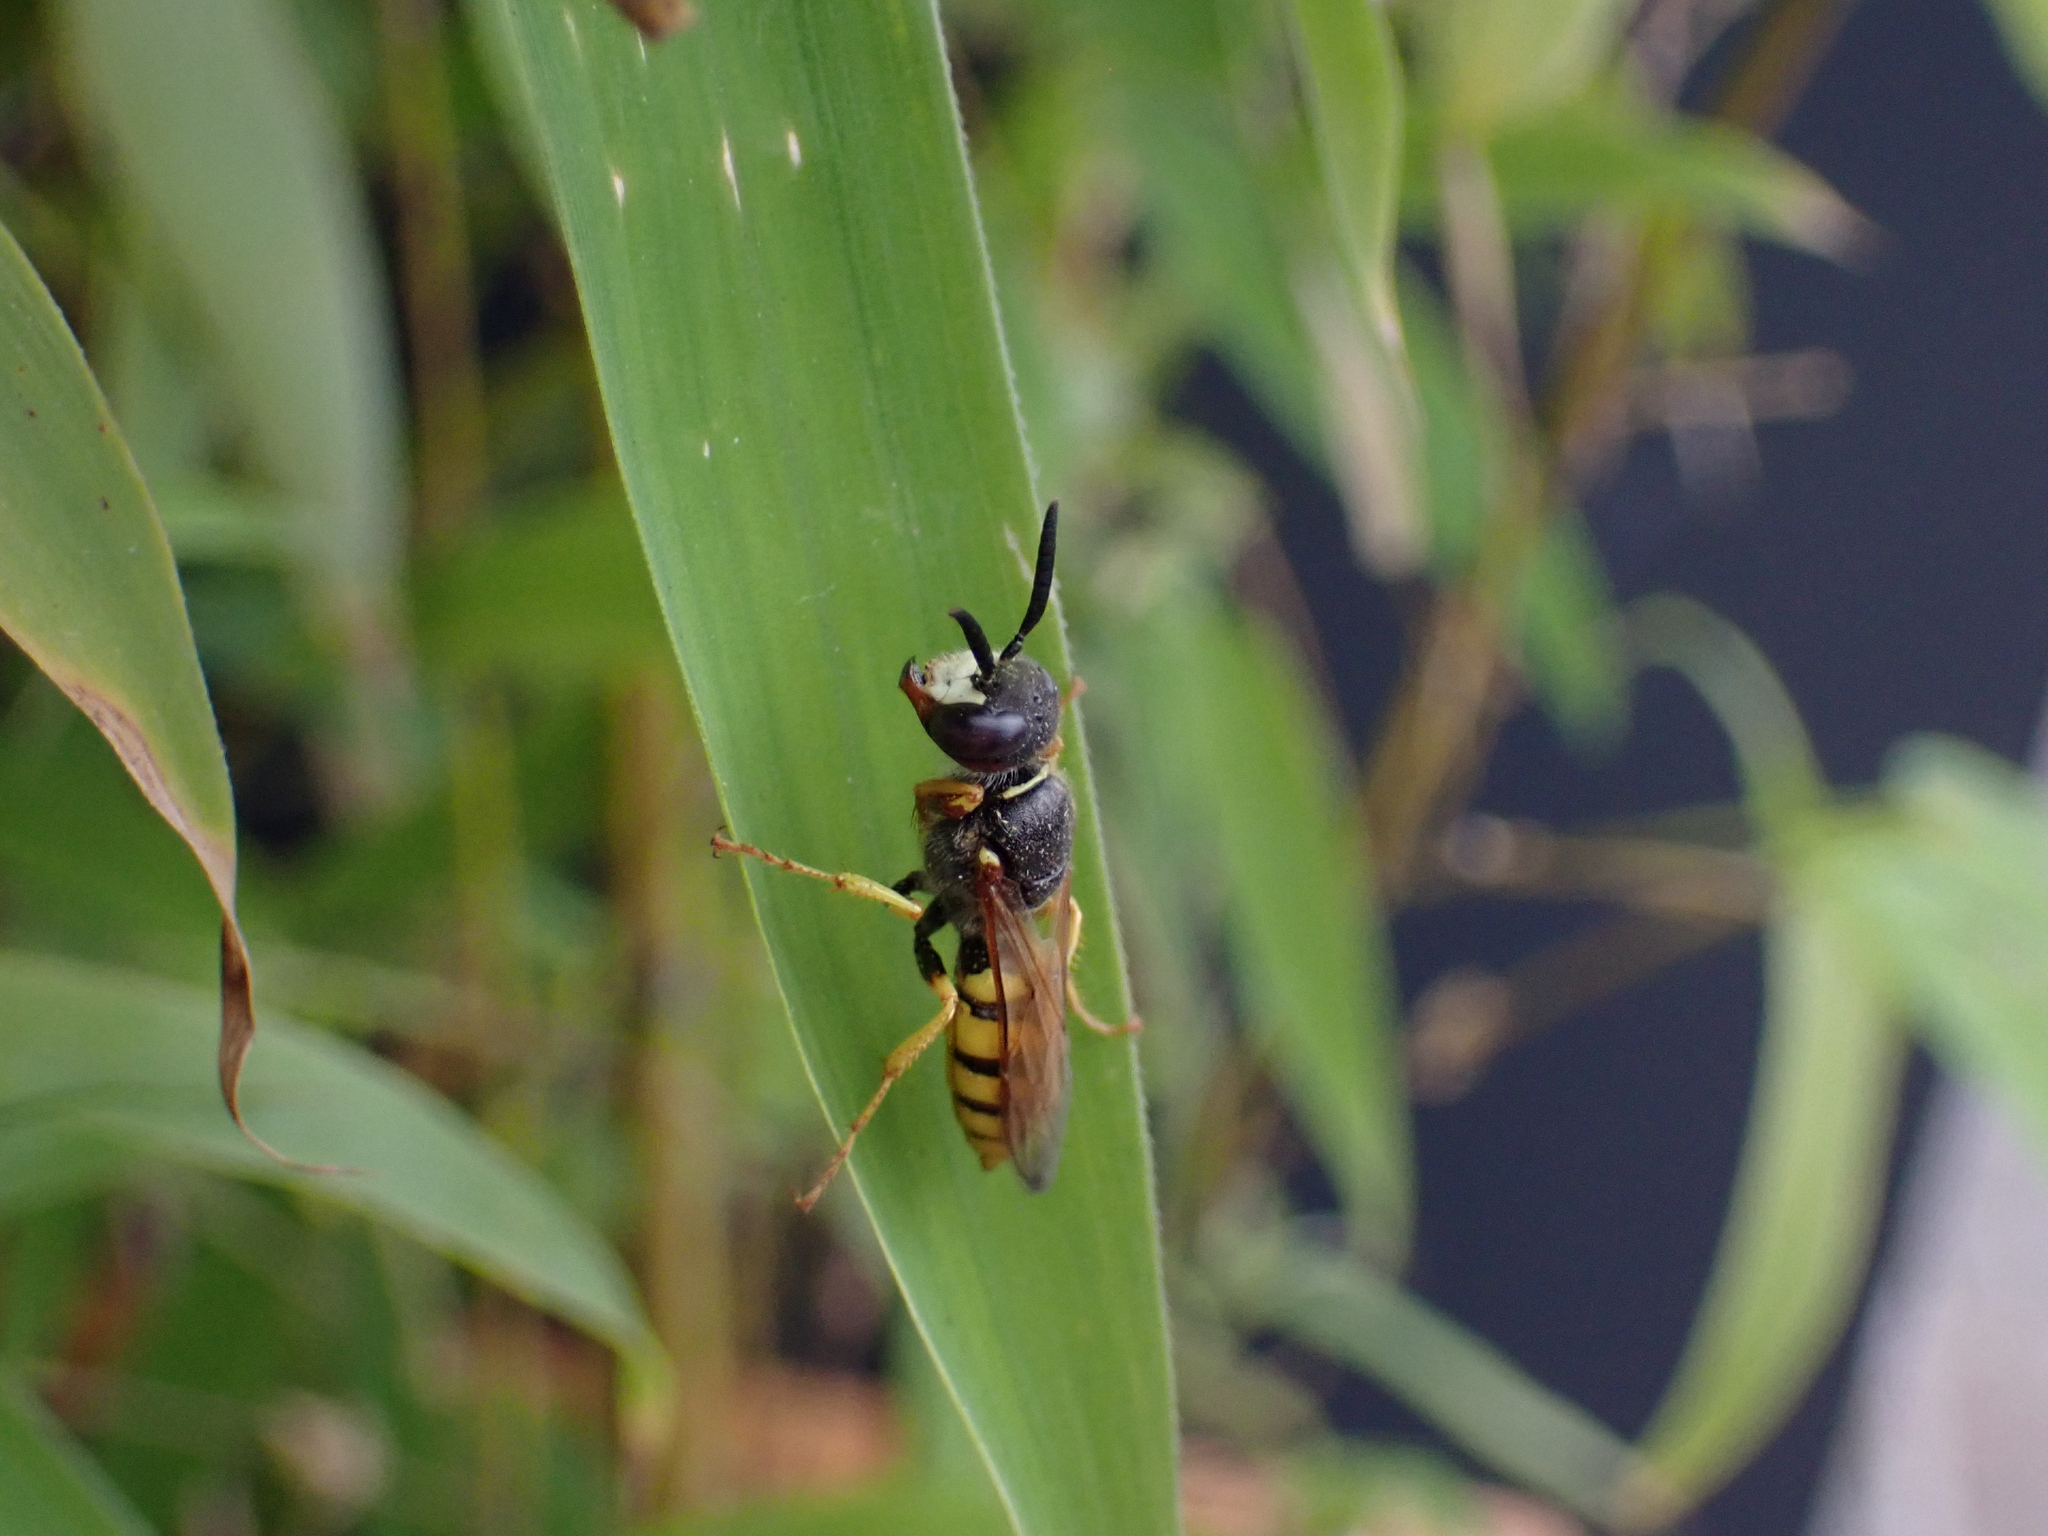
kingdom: Animalia
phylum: Arthropoda
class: Insecta
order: Hymenoptera
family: Crabronidae
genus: Philanthus
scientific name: Philanthus triangulum
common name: Bee wolf
